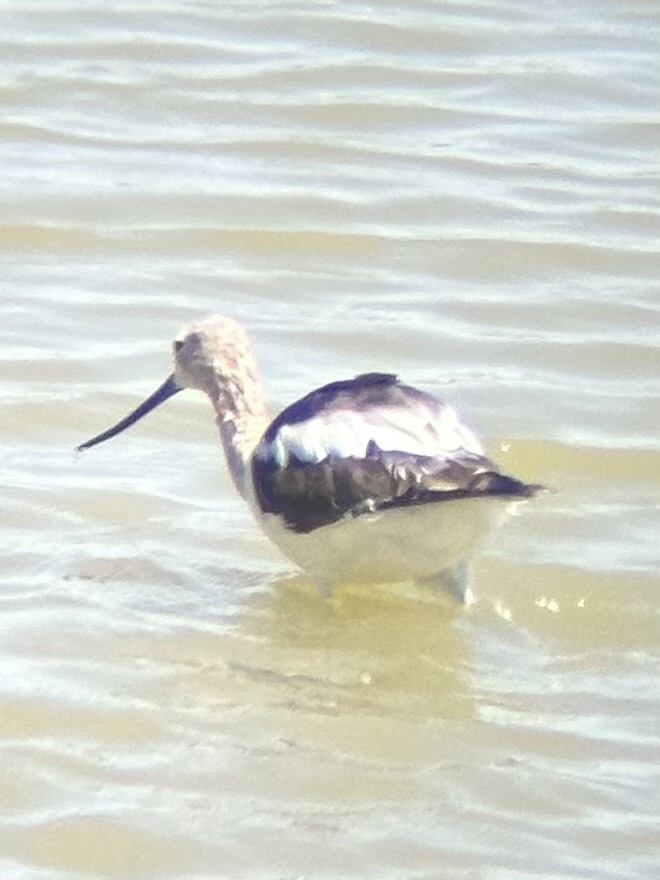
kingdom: Animalia
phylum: Chordata
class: Aves
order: Charadriiformes
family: Recurvirostridae
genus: Recurvirostra
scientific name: Recurvirostra americana
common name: American avocet
